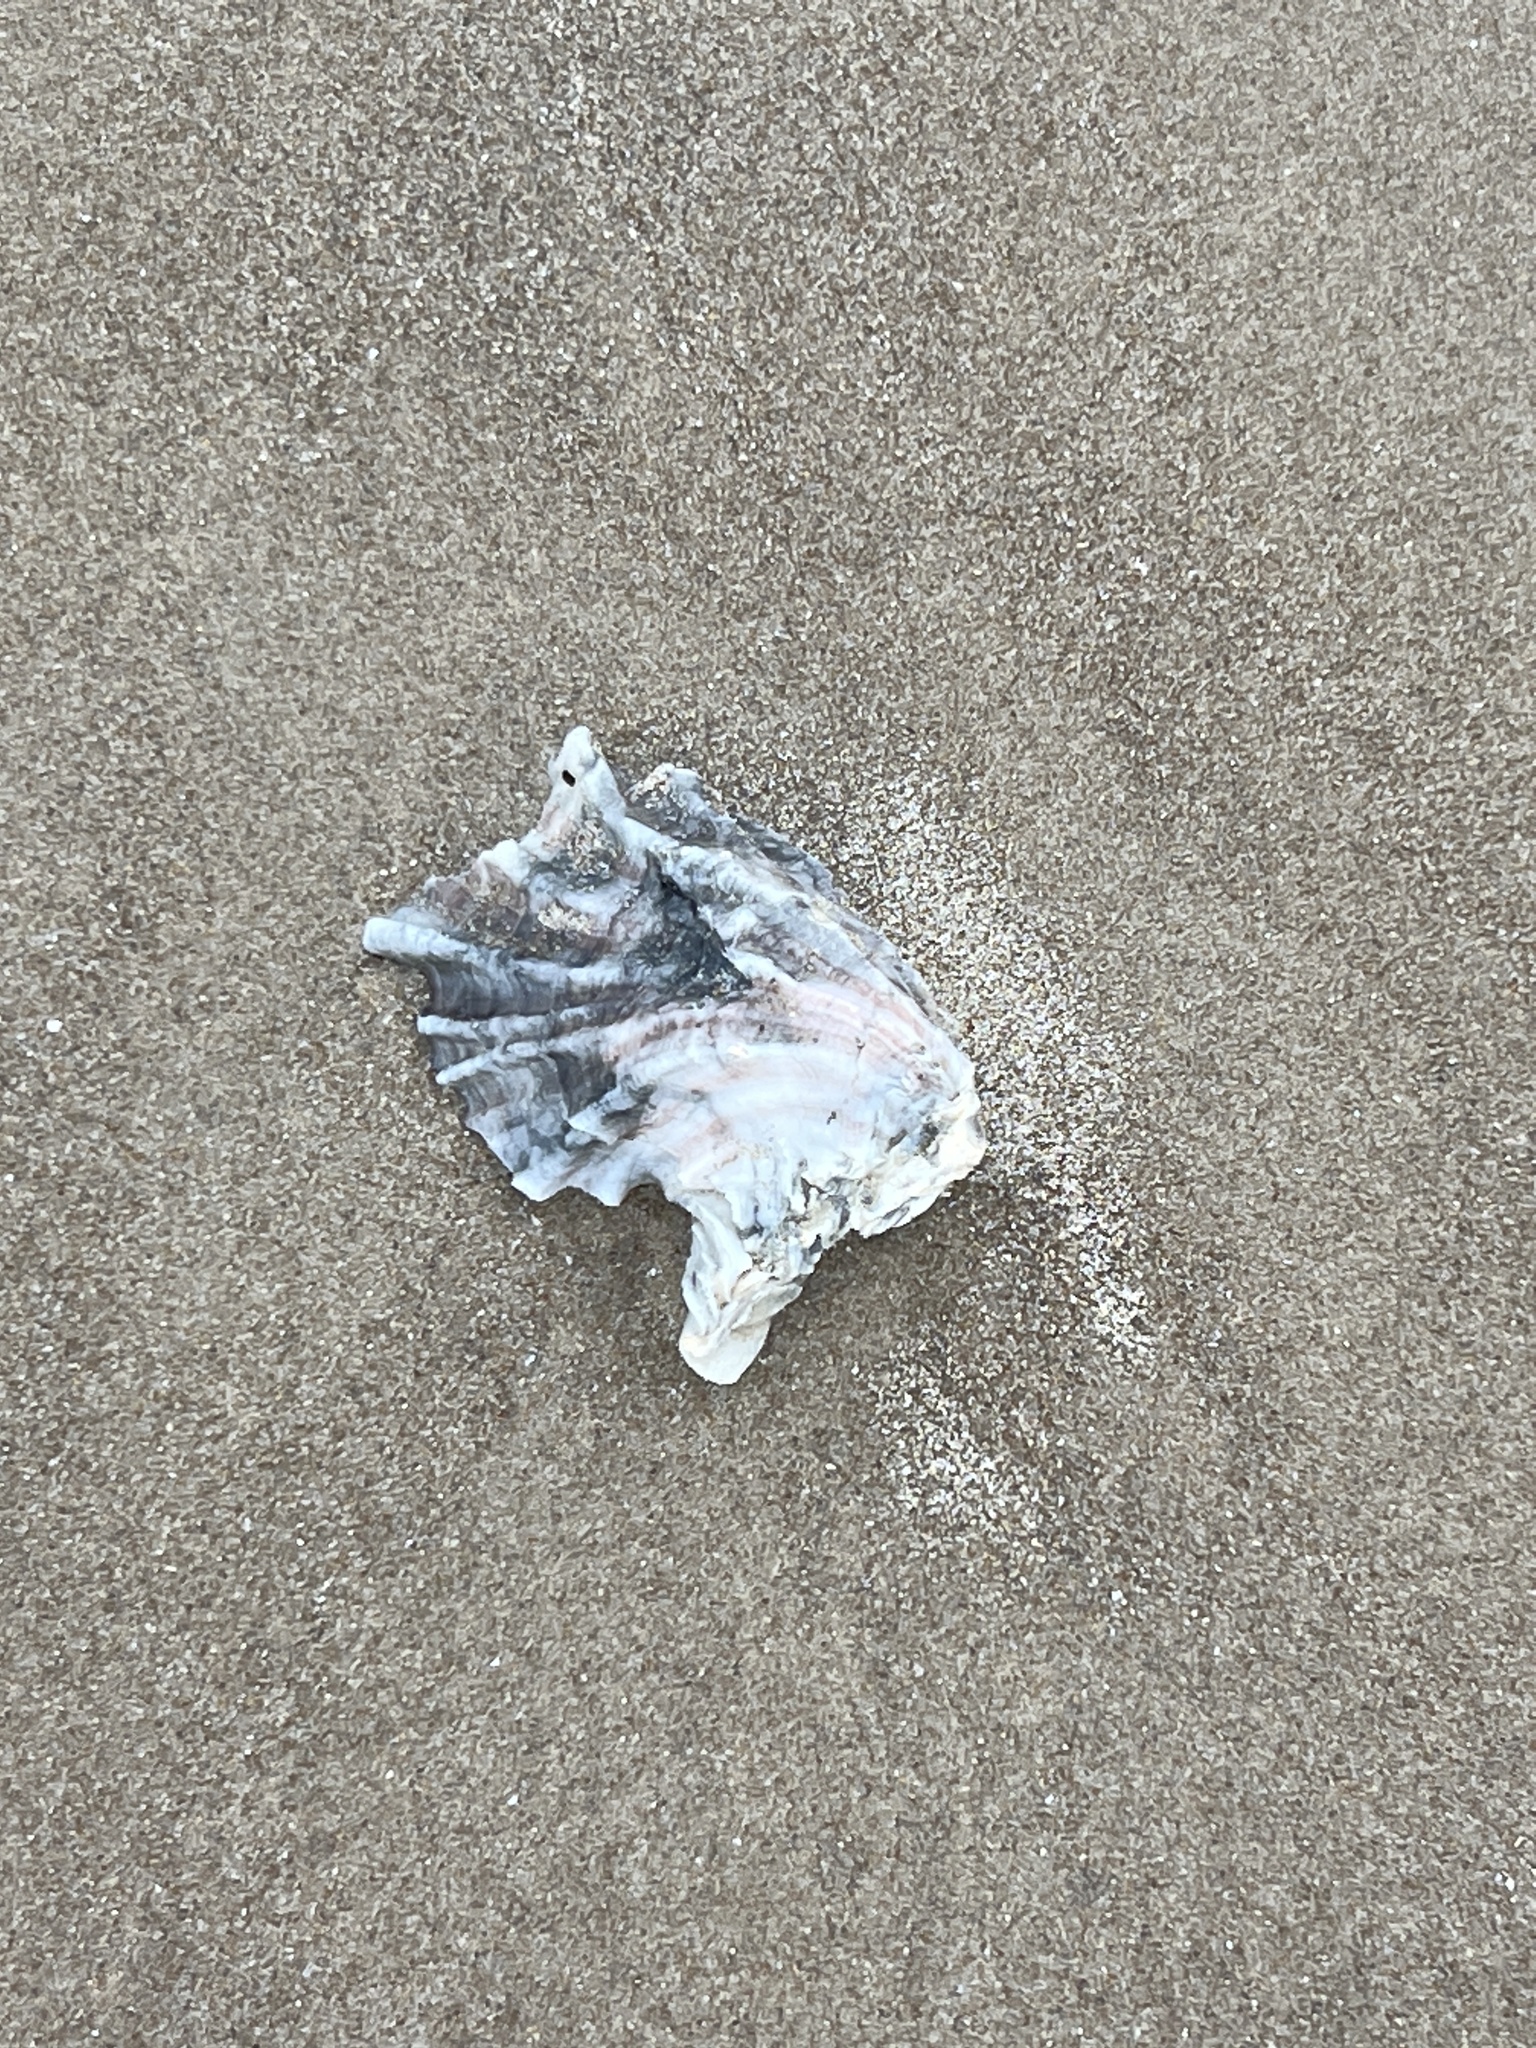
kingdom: Animalia
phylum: Mollusca
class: Bivalvia
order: Ostreida
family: Ostreidae
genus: Crassostrea
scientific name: Crassostrea virginica
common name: American oyster
